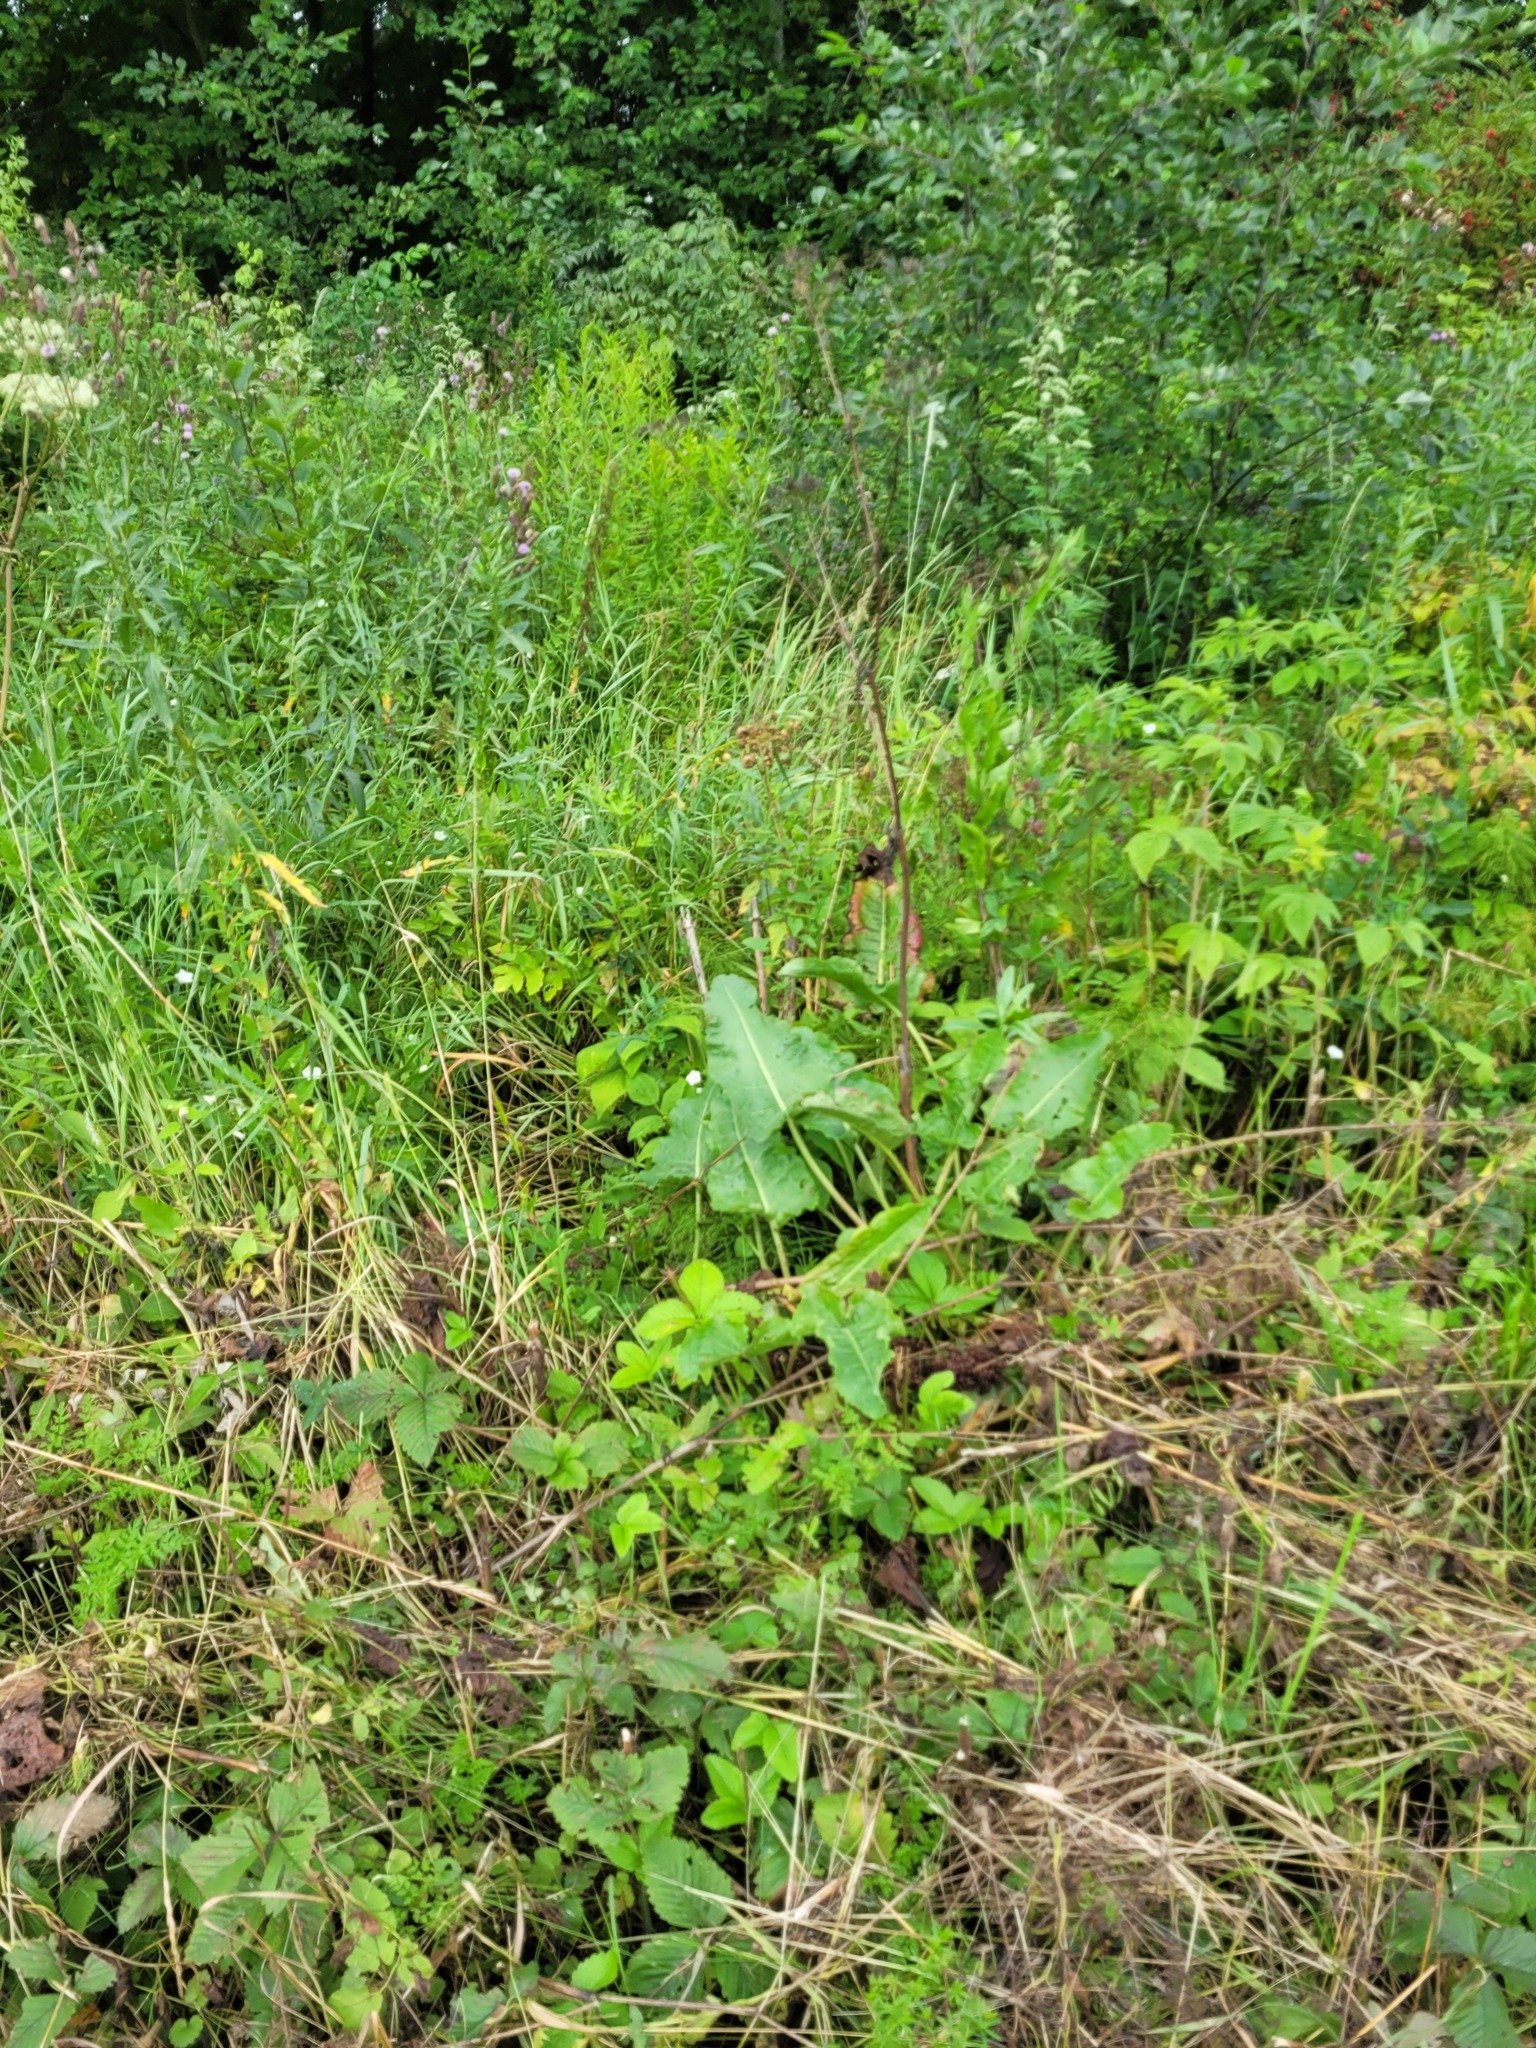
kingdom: Plantae
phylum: Tracheophyta
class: Magnoliopsida
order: Caryophyllales
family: Polygonaceae
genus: Rumex
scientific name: Rumex confertus
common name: Russian dock
